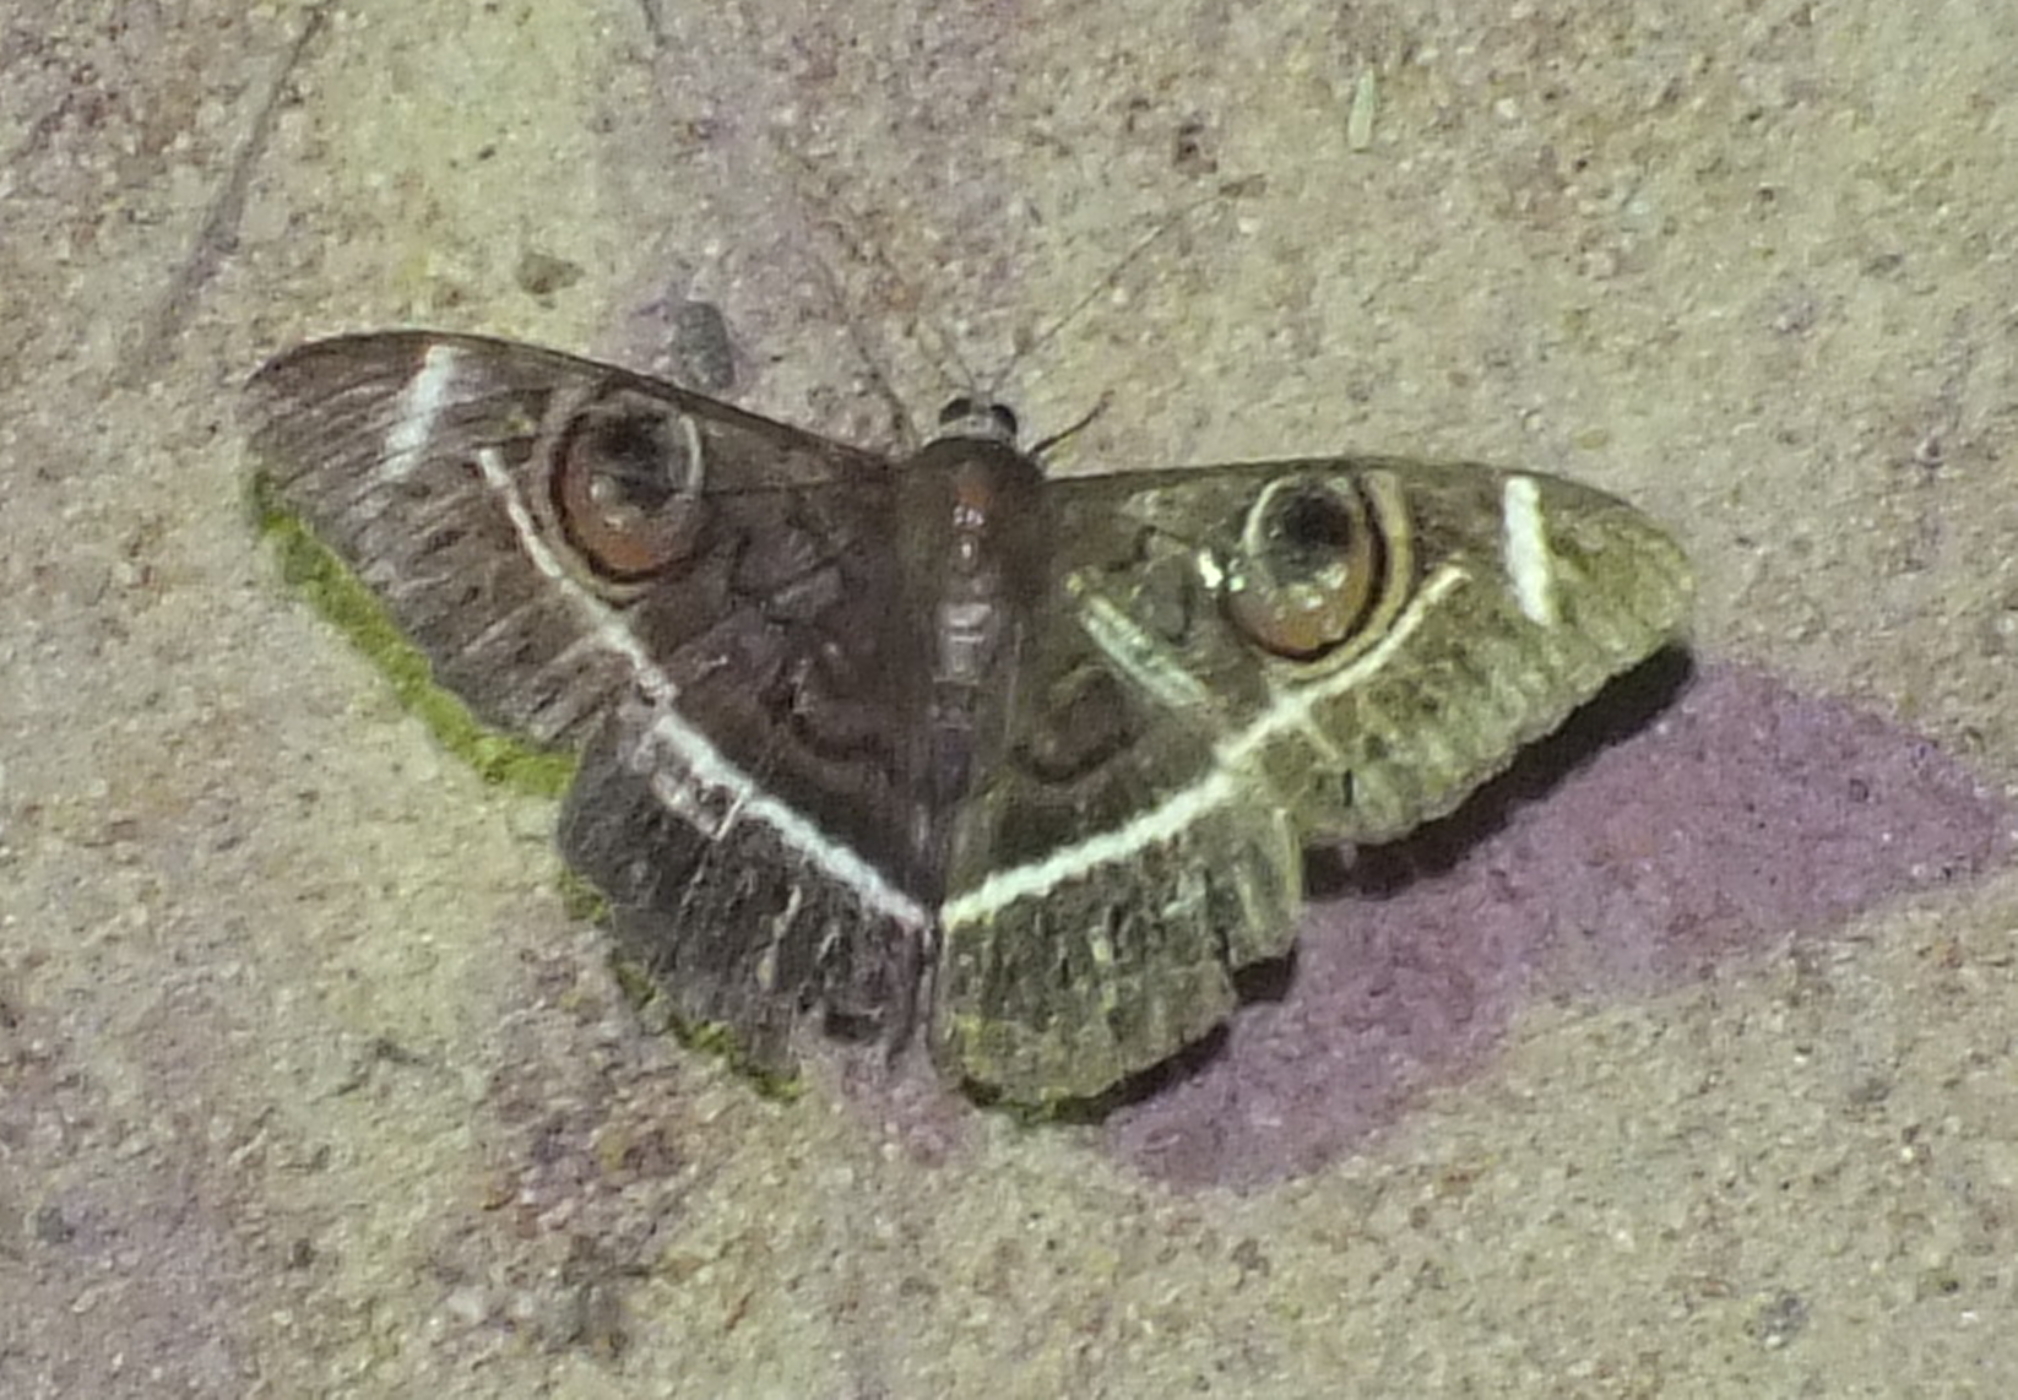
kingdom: Animalia
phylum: Arthropoda
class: Insecta
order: Lepidoptera
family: Erebidae
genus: Cyligramma
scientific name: Cyligramma latona
